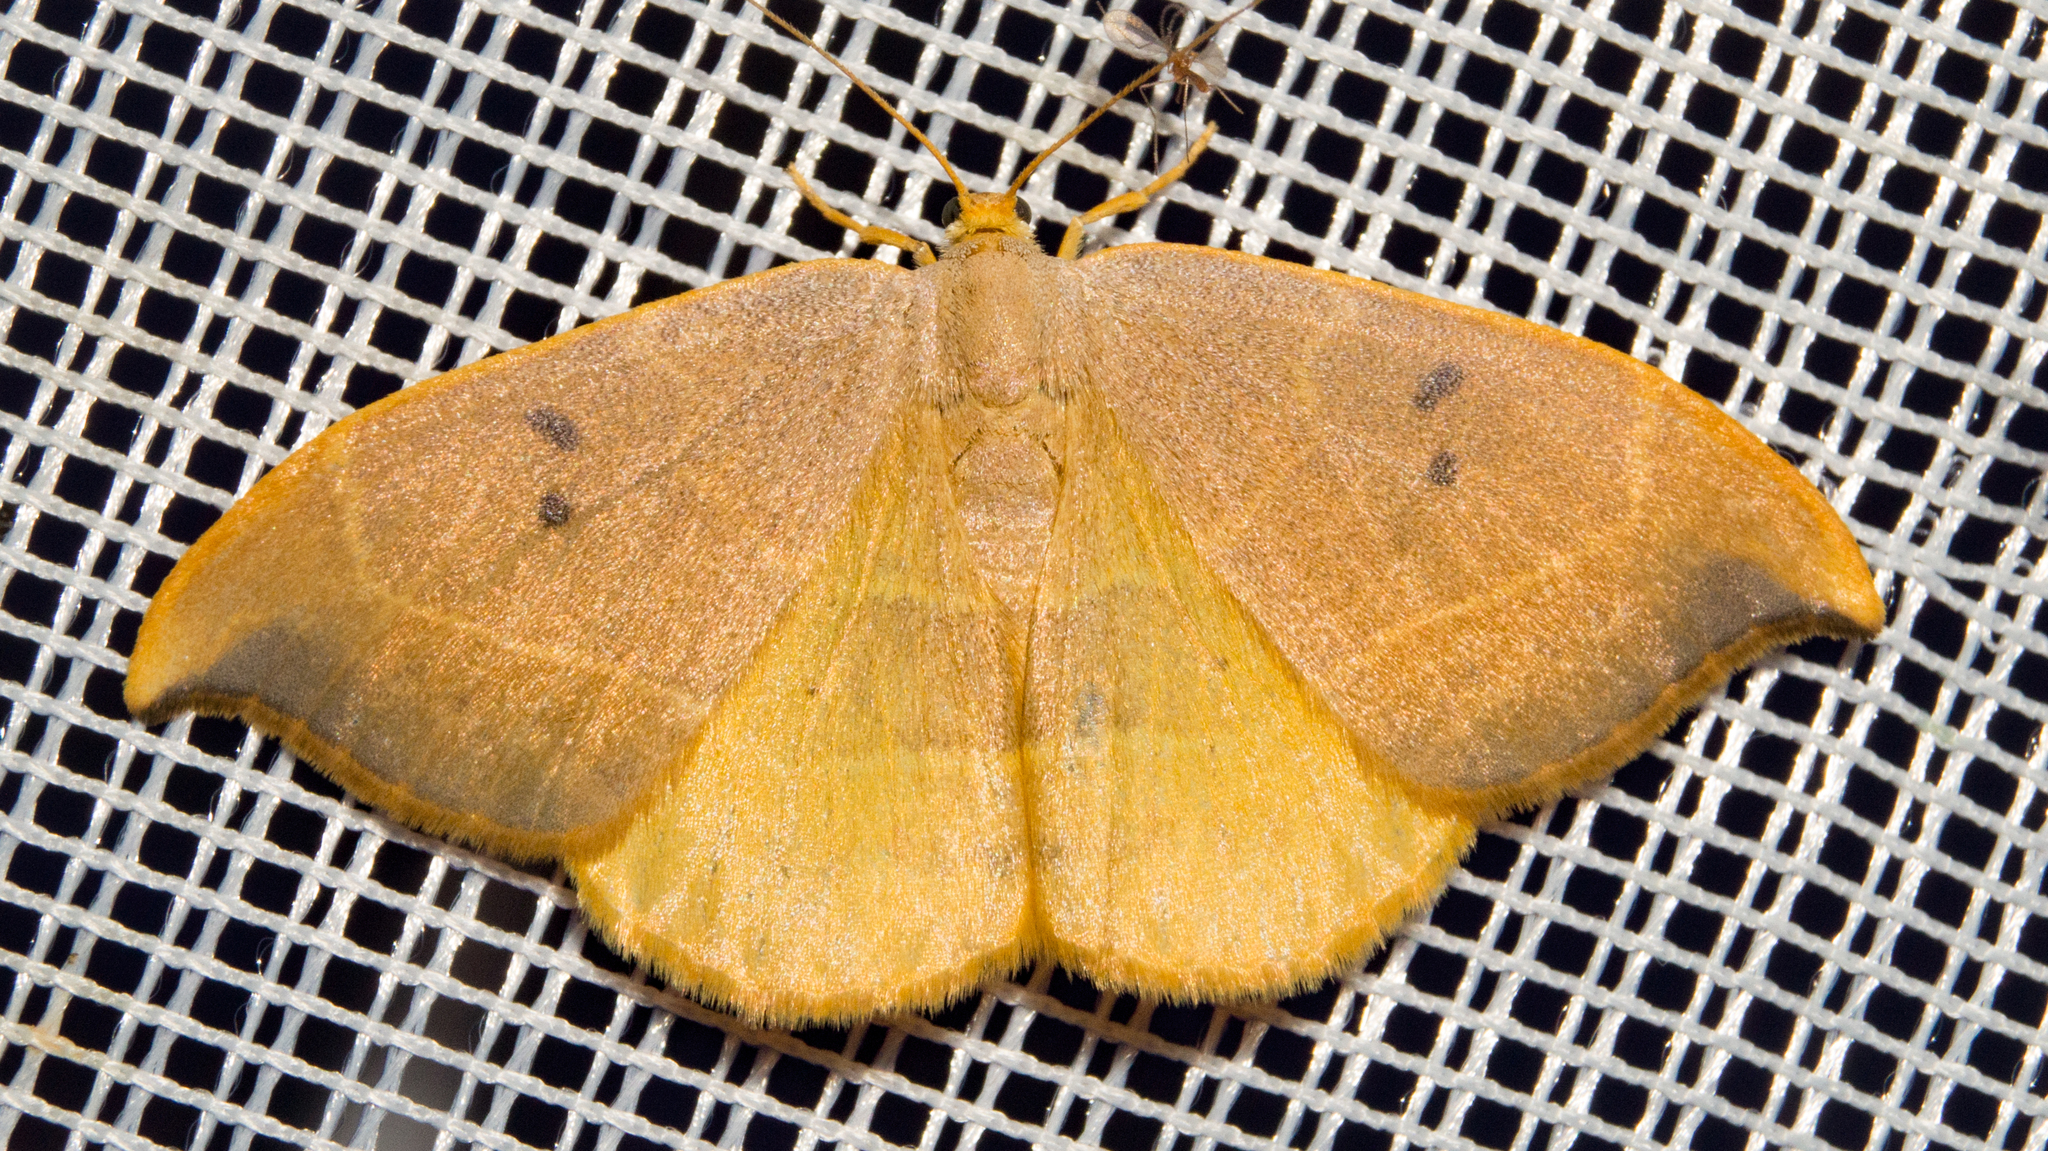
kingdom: Animalia
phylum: Arthropoda
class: Insecta
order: Lepidoptera
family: Drepanidae
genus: Watsonalla
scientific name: Watsonalla binaria
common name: Oak hook-tip
